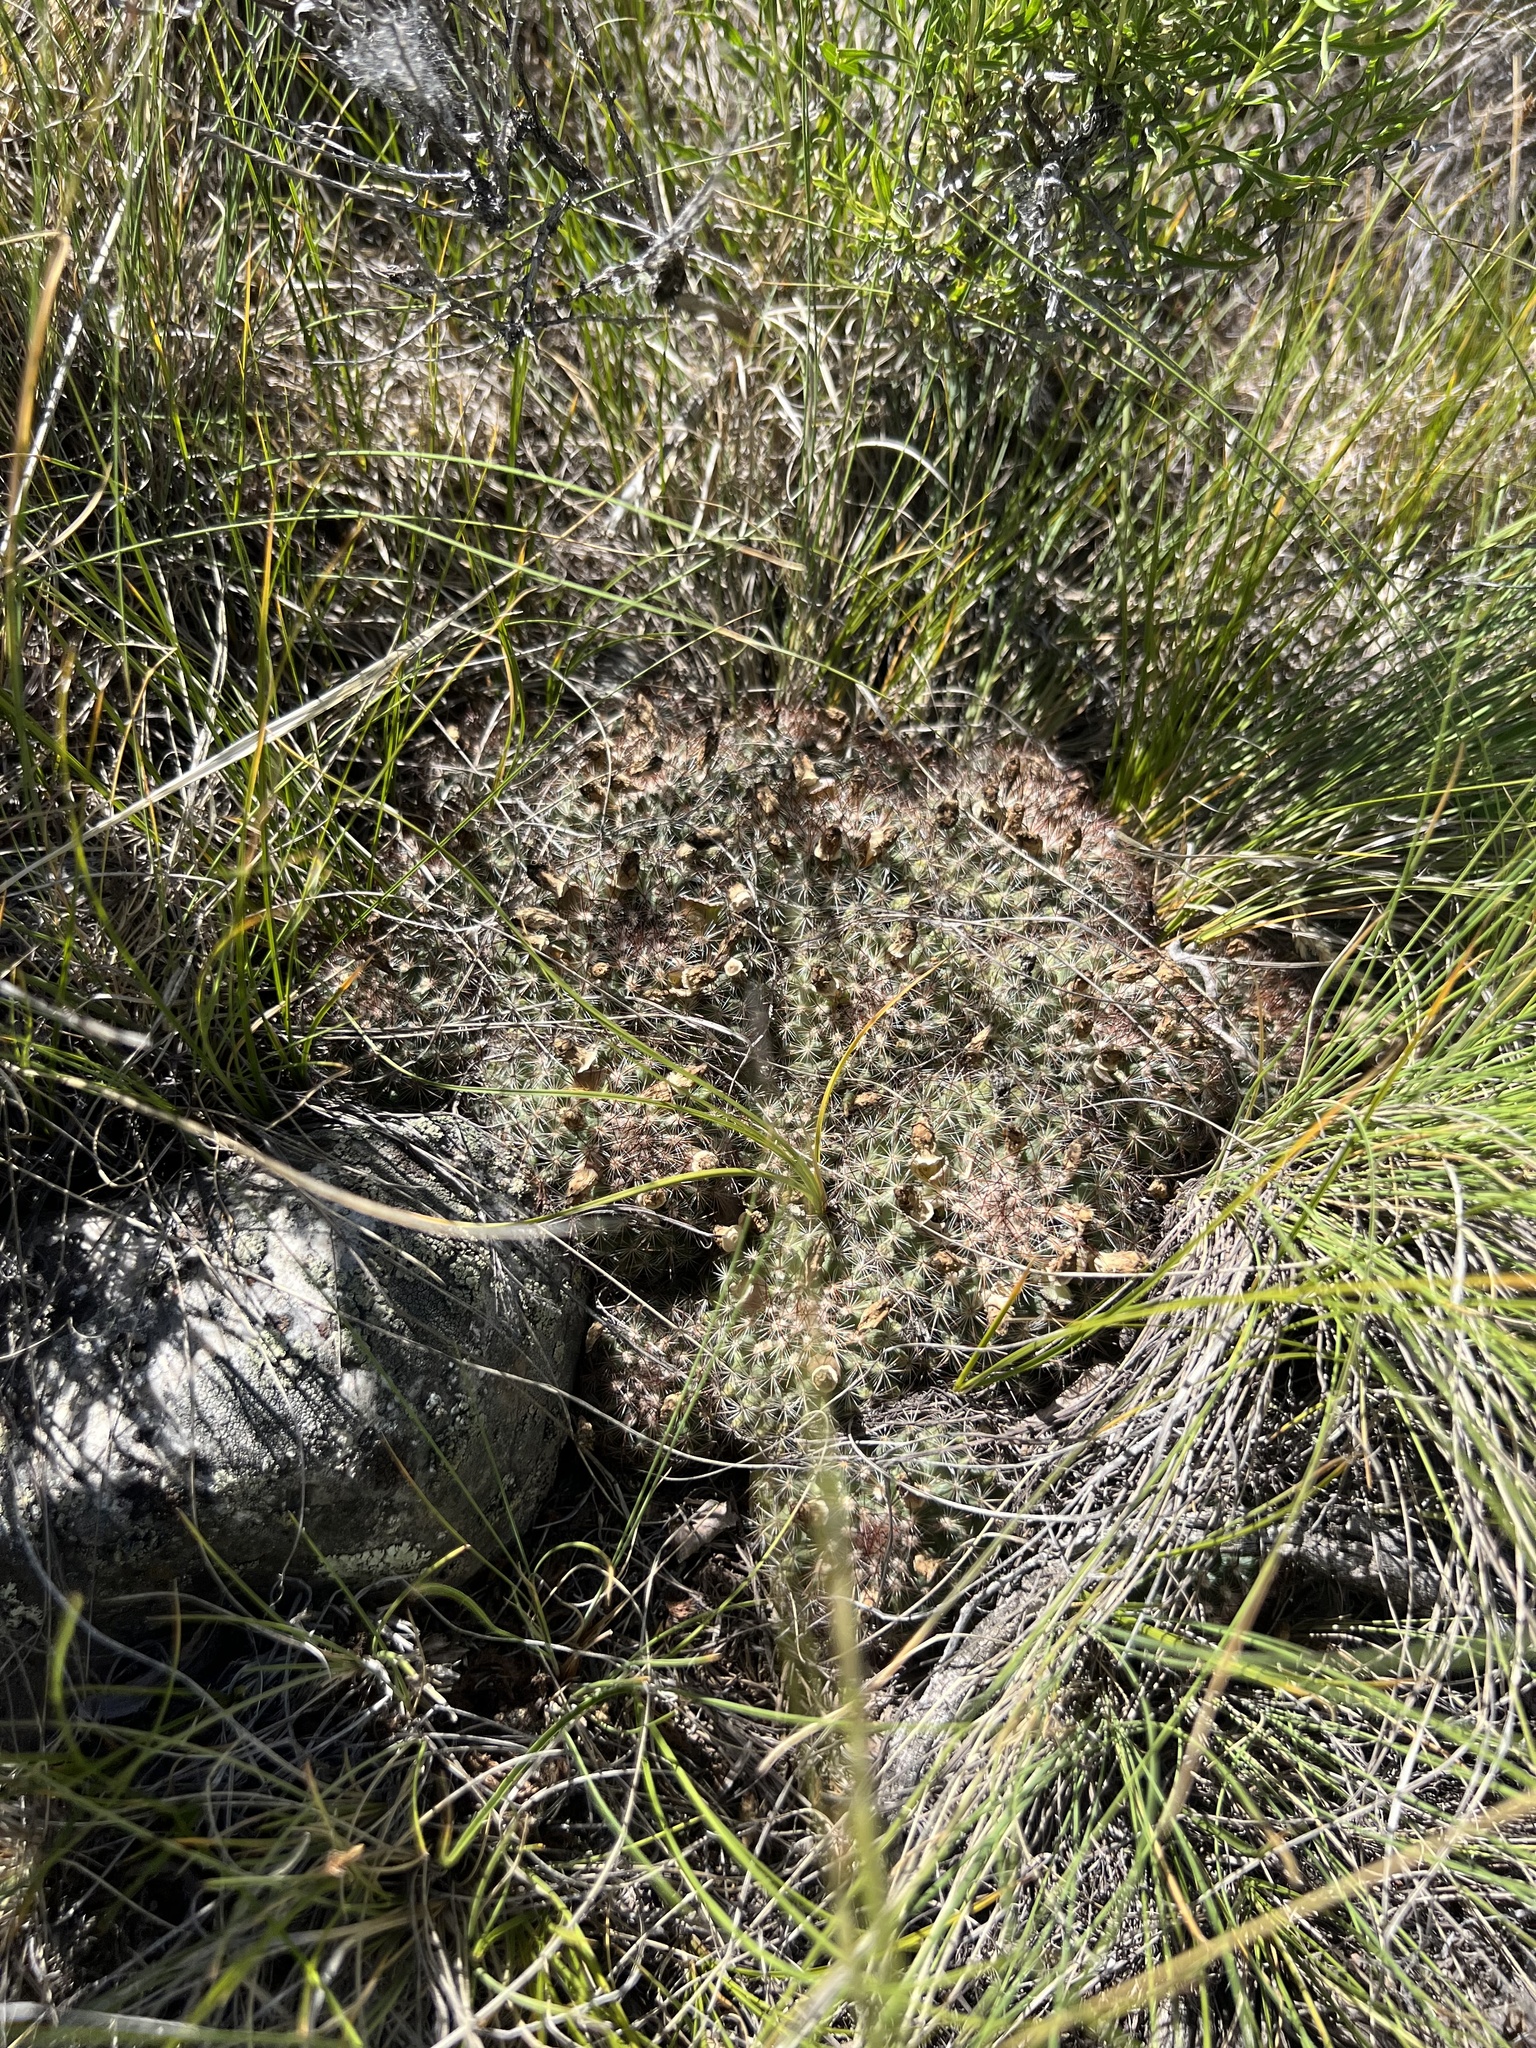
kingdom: Plantae
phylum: Tracheophyta
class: Magnoliopsida
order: Caryophyllales
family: Cactaceae
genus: Pediocactus
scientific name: Pediocactus simpsonii
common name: Simpson's hedgehog cactus
